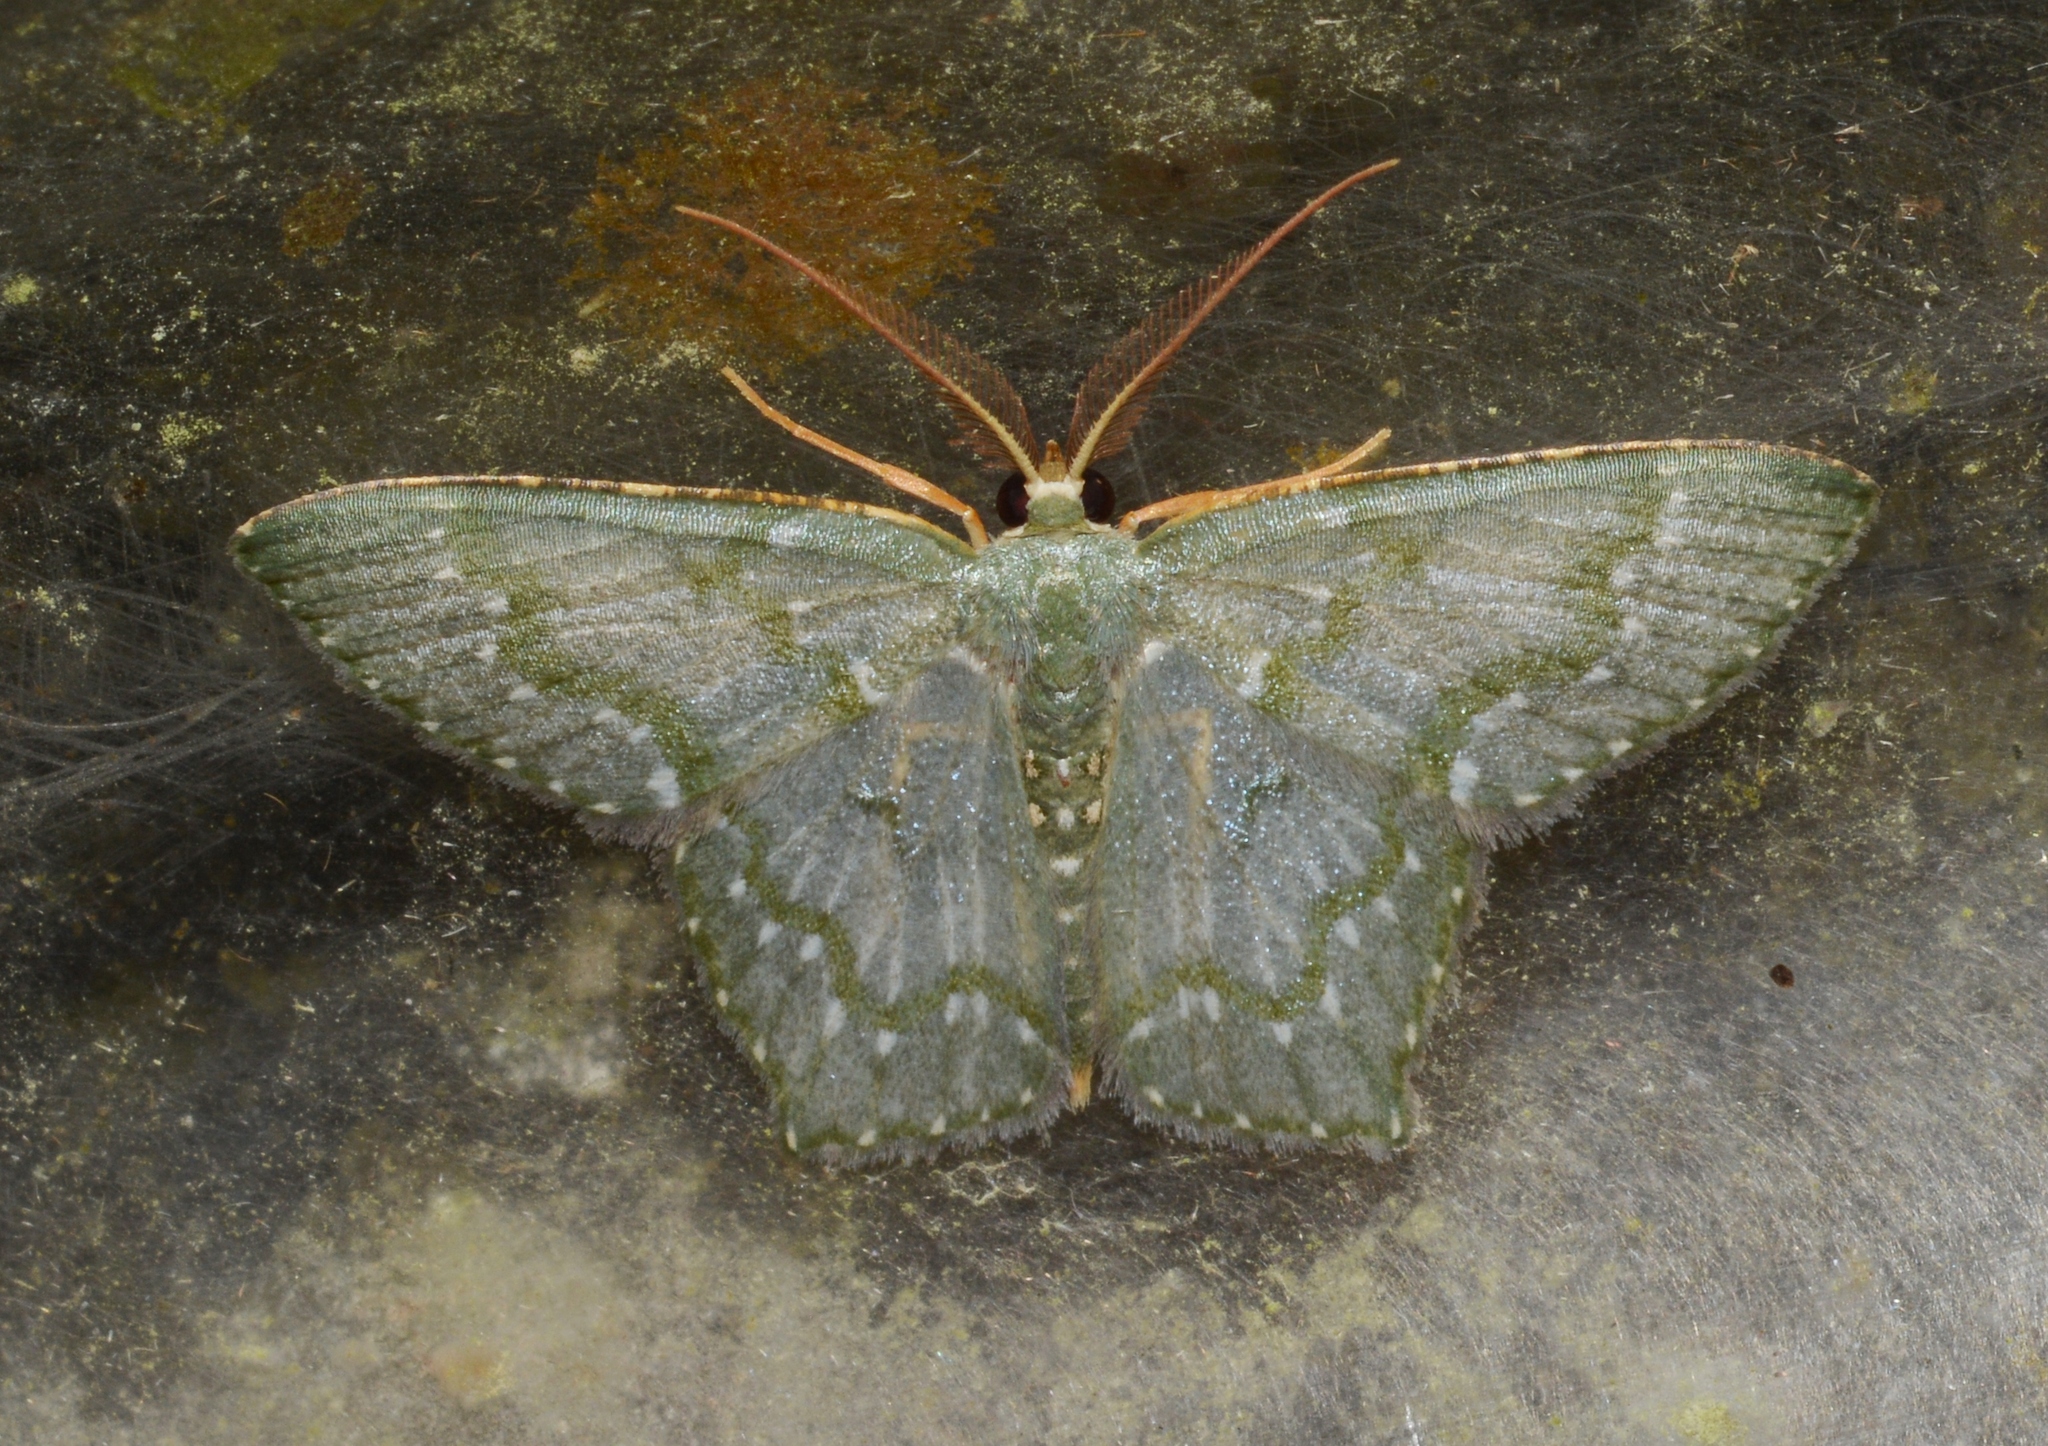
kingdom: Animalia
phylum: Arthropoda
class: Insecta
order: Lepidoptera
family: Geometridae
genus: Chloropteryx
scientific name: Chloropteryx diluta
